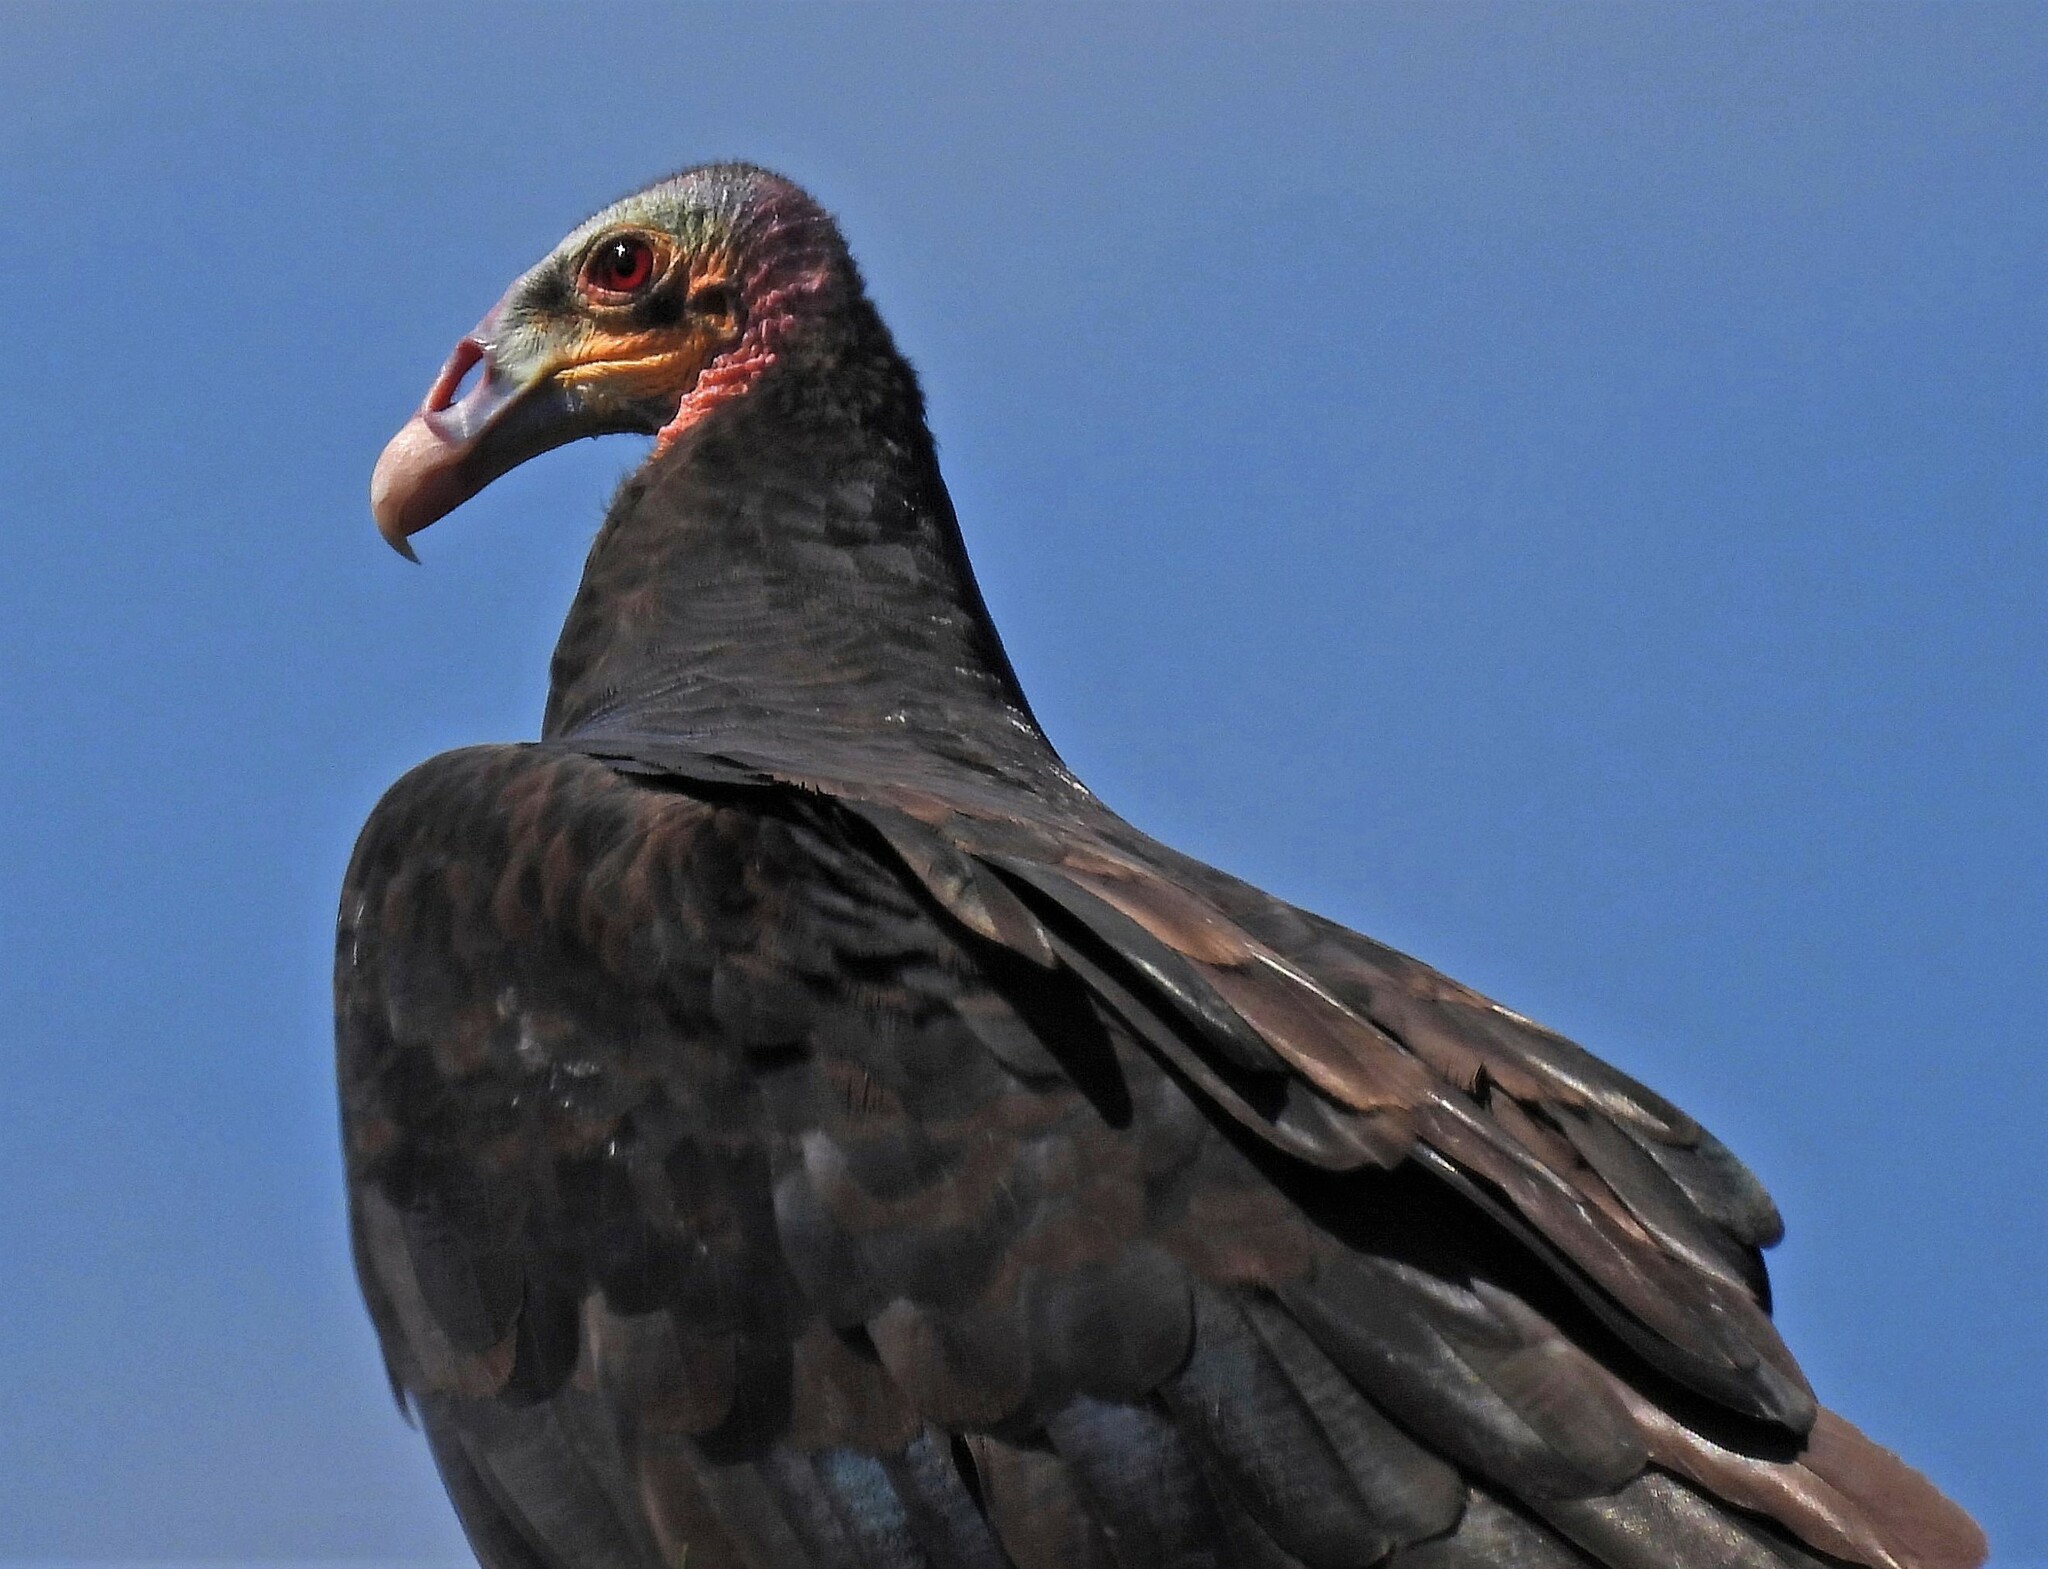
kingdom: Animalia
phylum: Chordata
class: Aves
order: Accipitriformes
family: Cathartidae
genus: Cathartes
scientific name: Cathartes burrovianus
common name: Lesser yellow-headed vulture
